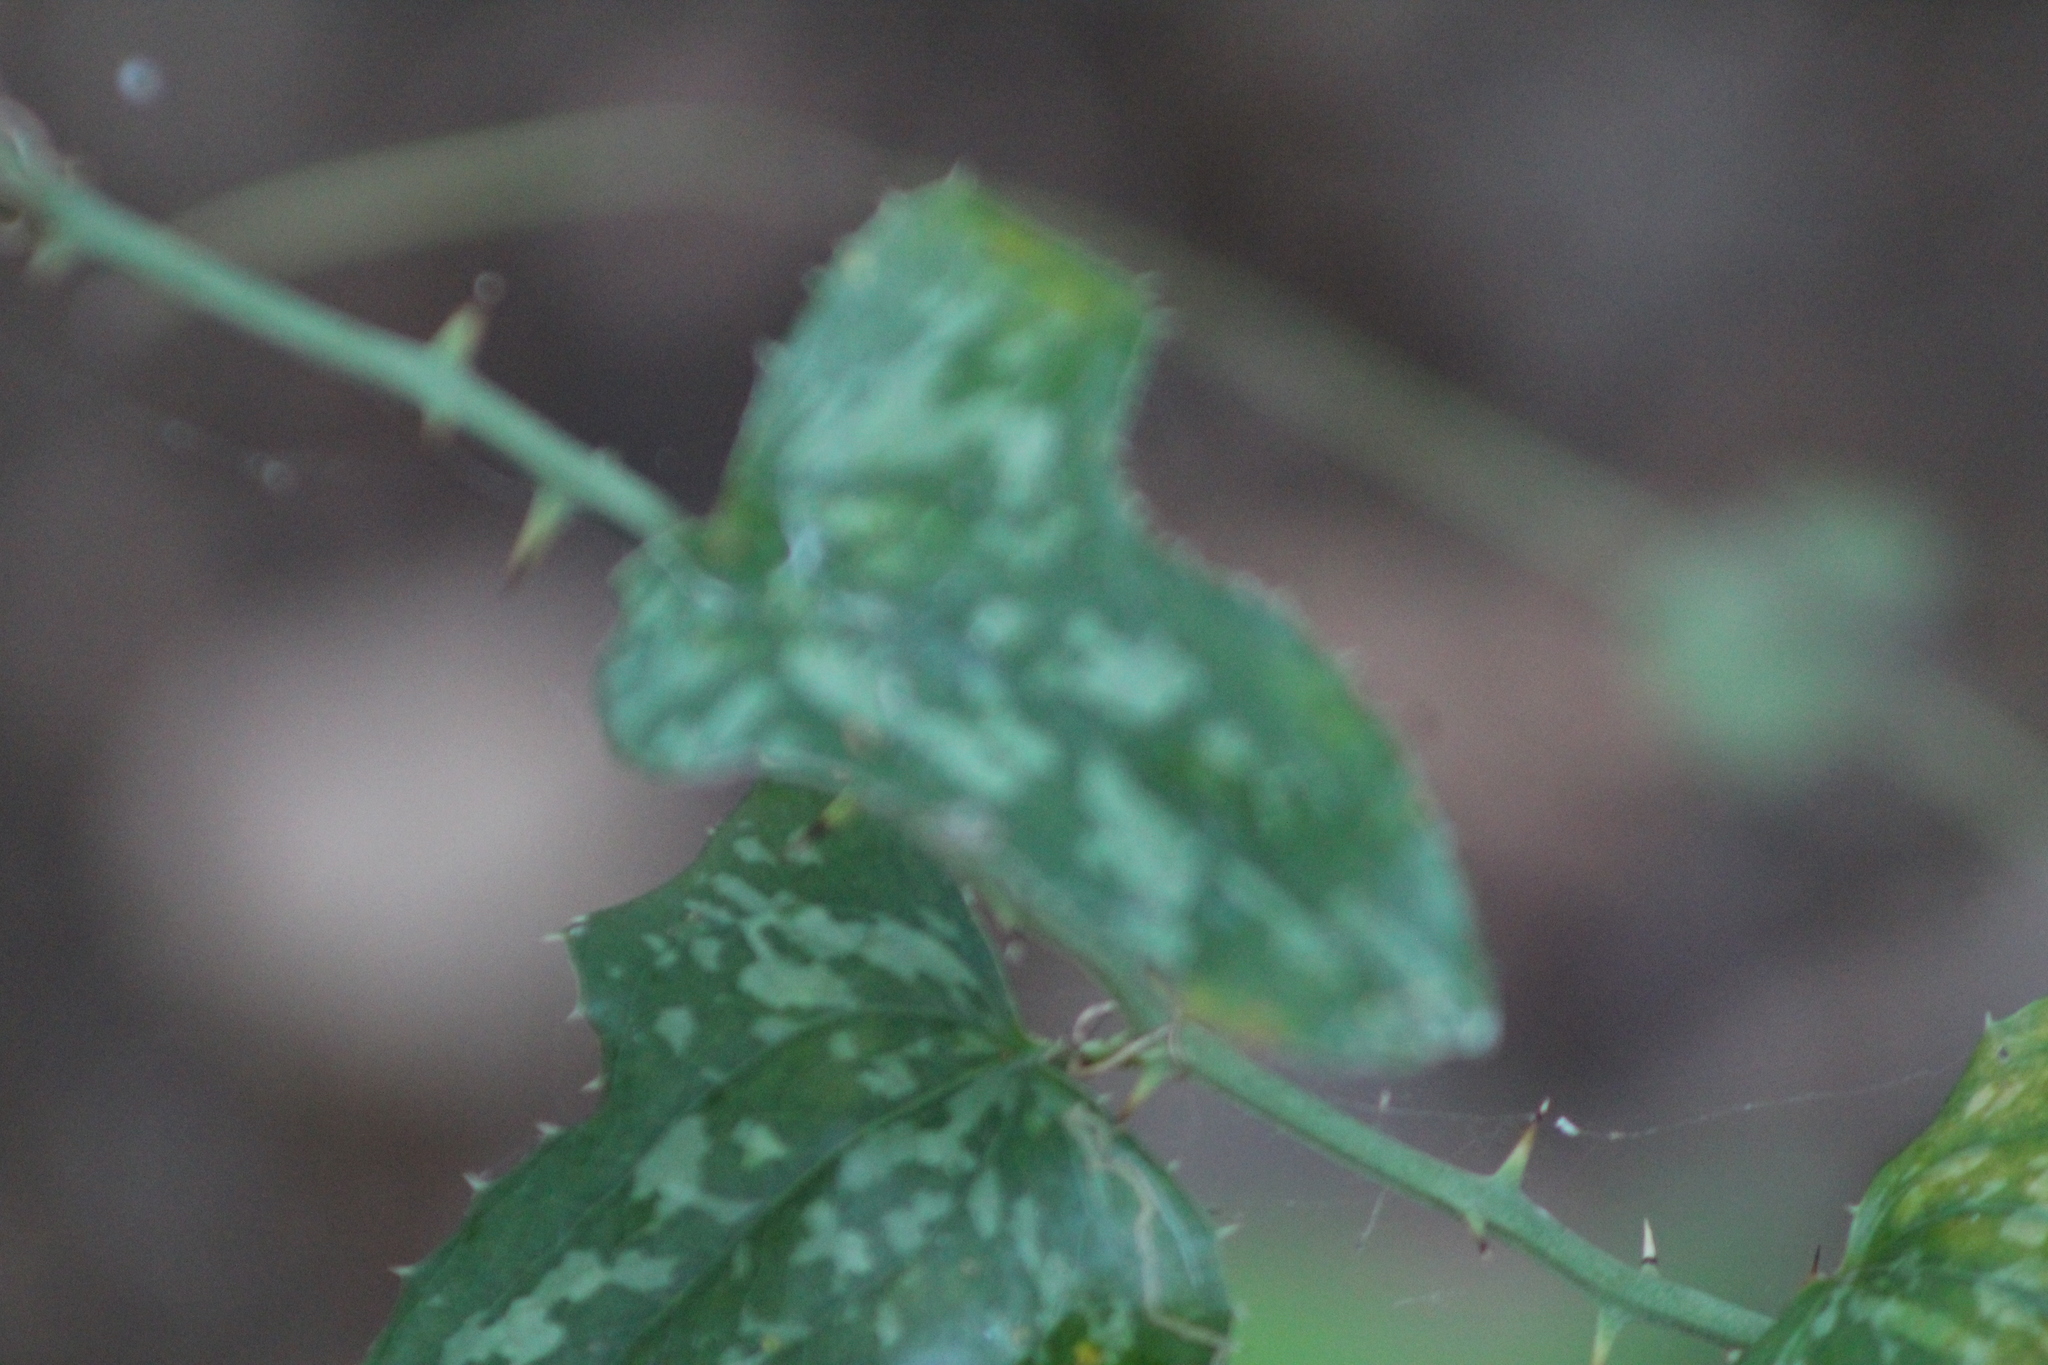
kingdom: Plantae
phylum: Tracheophyta
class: Liliopsida
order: Liliales
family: Smilacaceae
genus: Smilax
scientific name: Smilax bona-nox
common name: Catbrier
